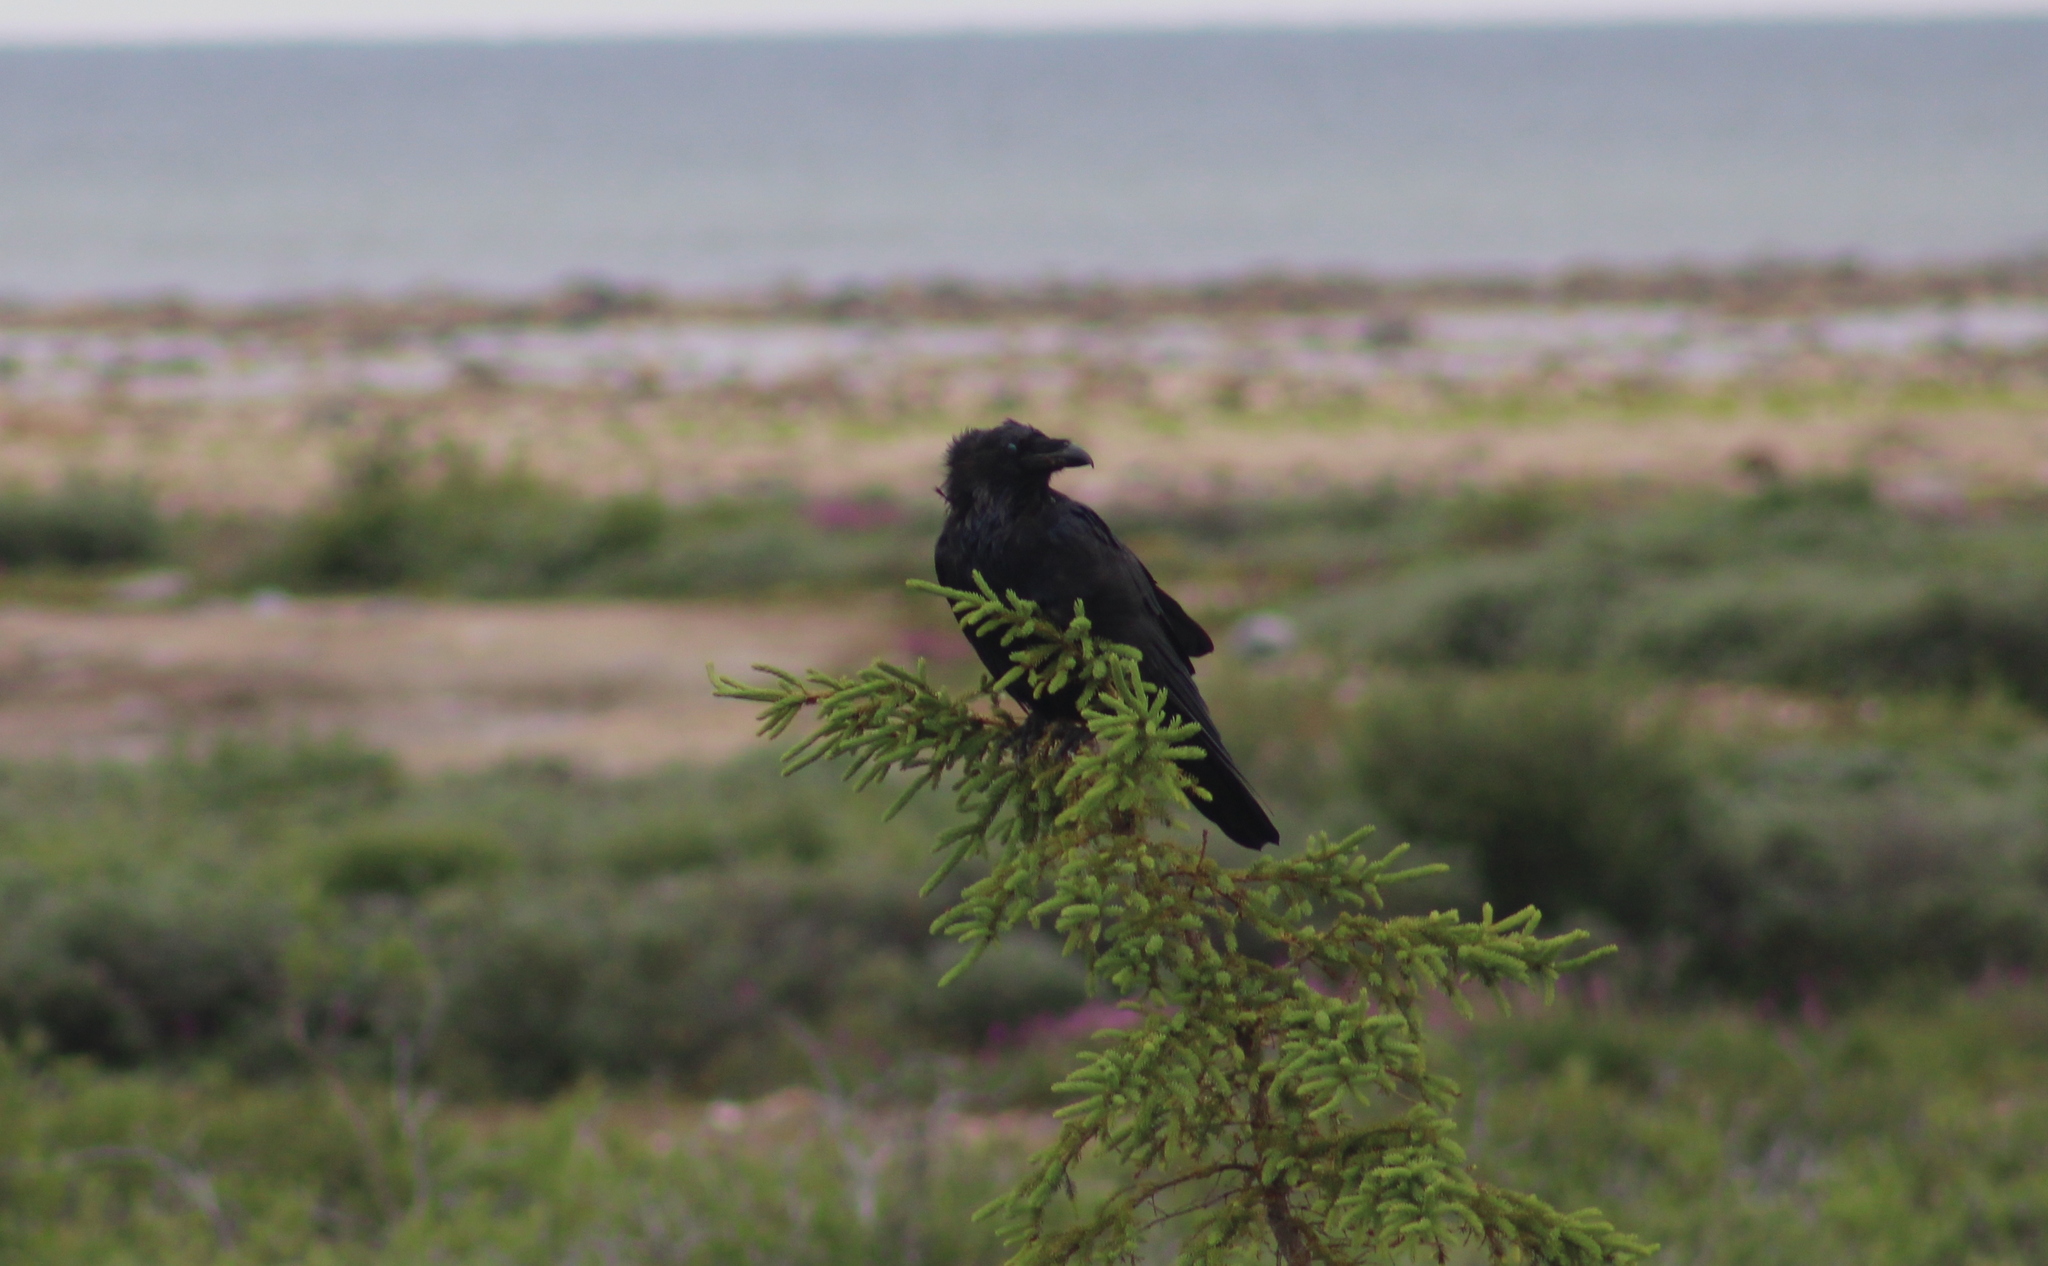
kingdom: Animalia
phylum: Chordata
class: Aves
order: Passeriformes
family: Corvidae
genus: Corvus
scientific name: Corvus corax
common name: Common raven
